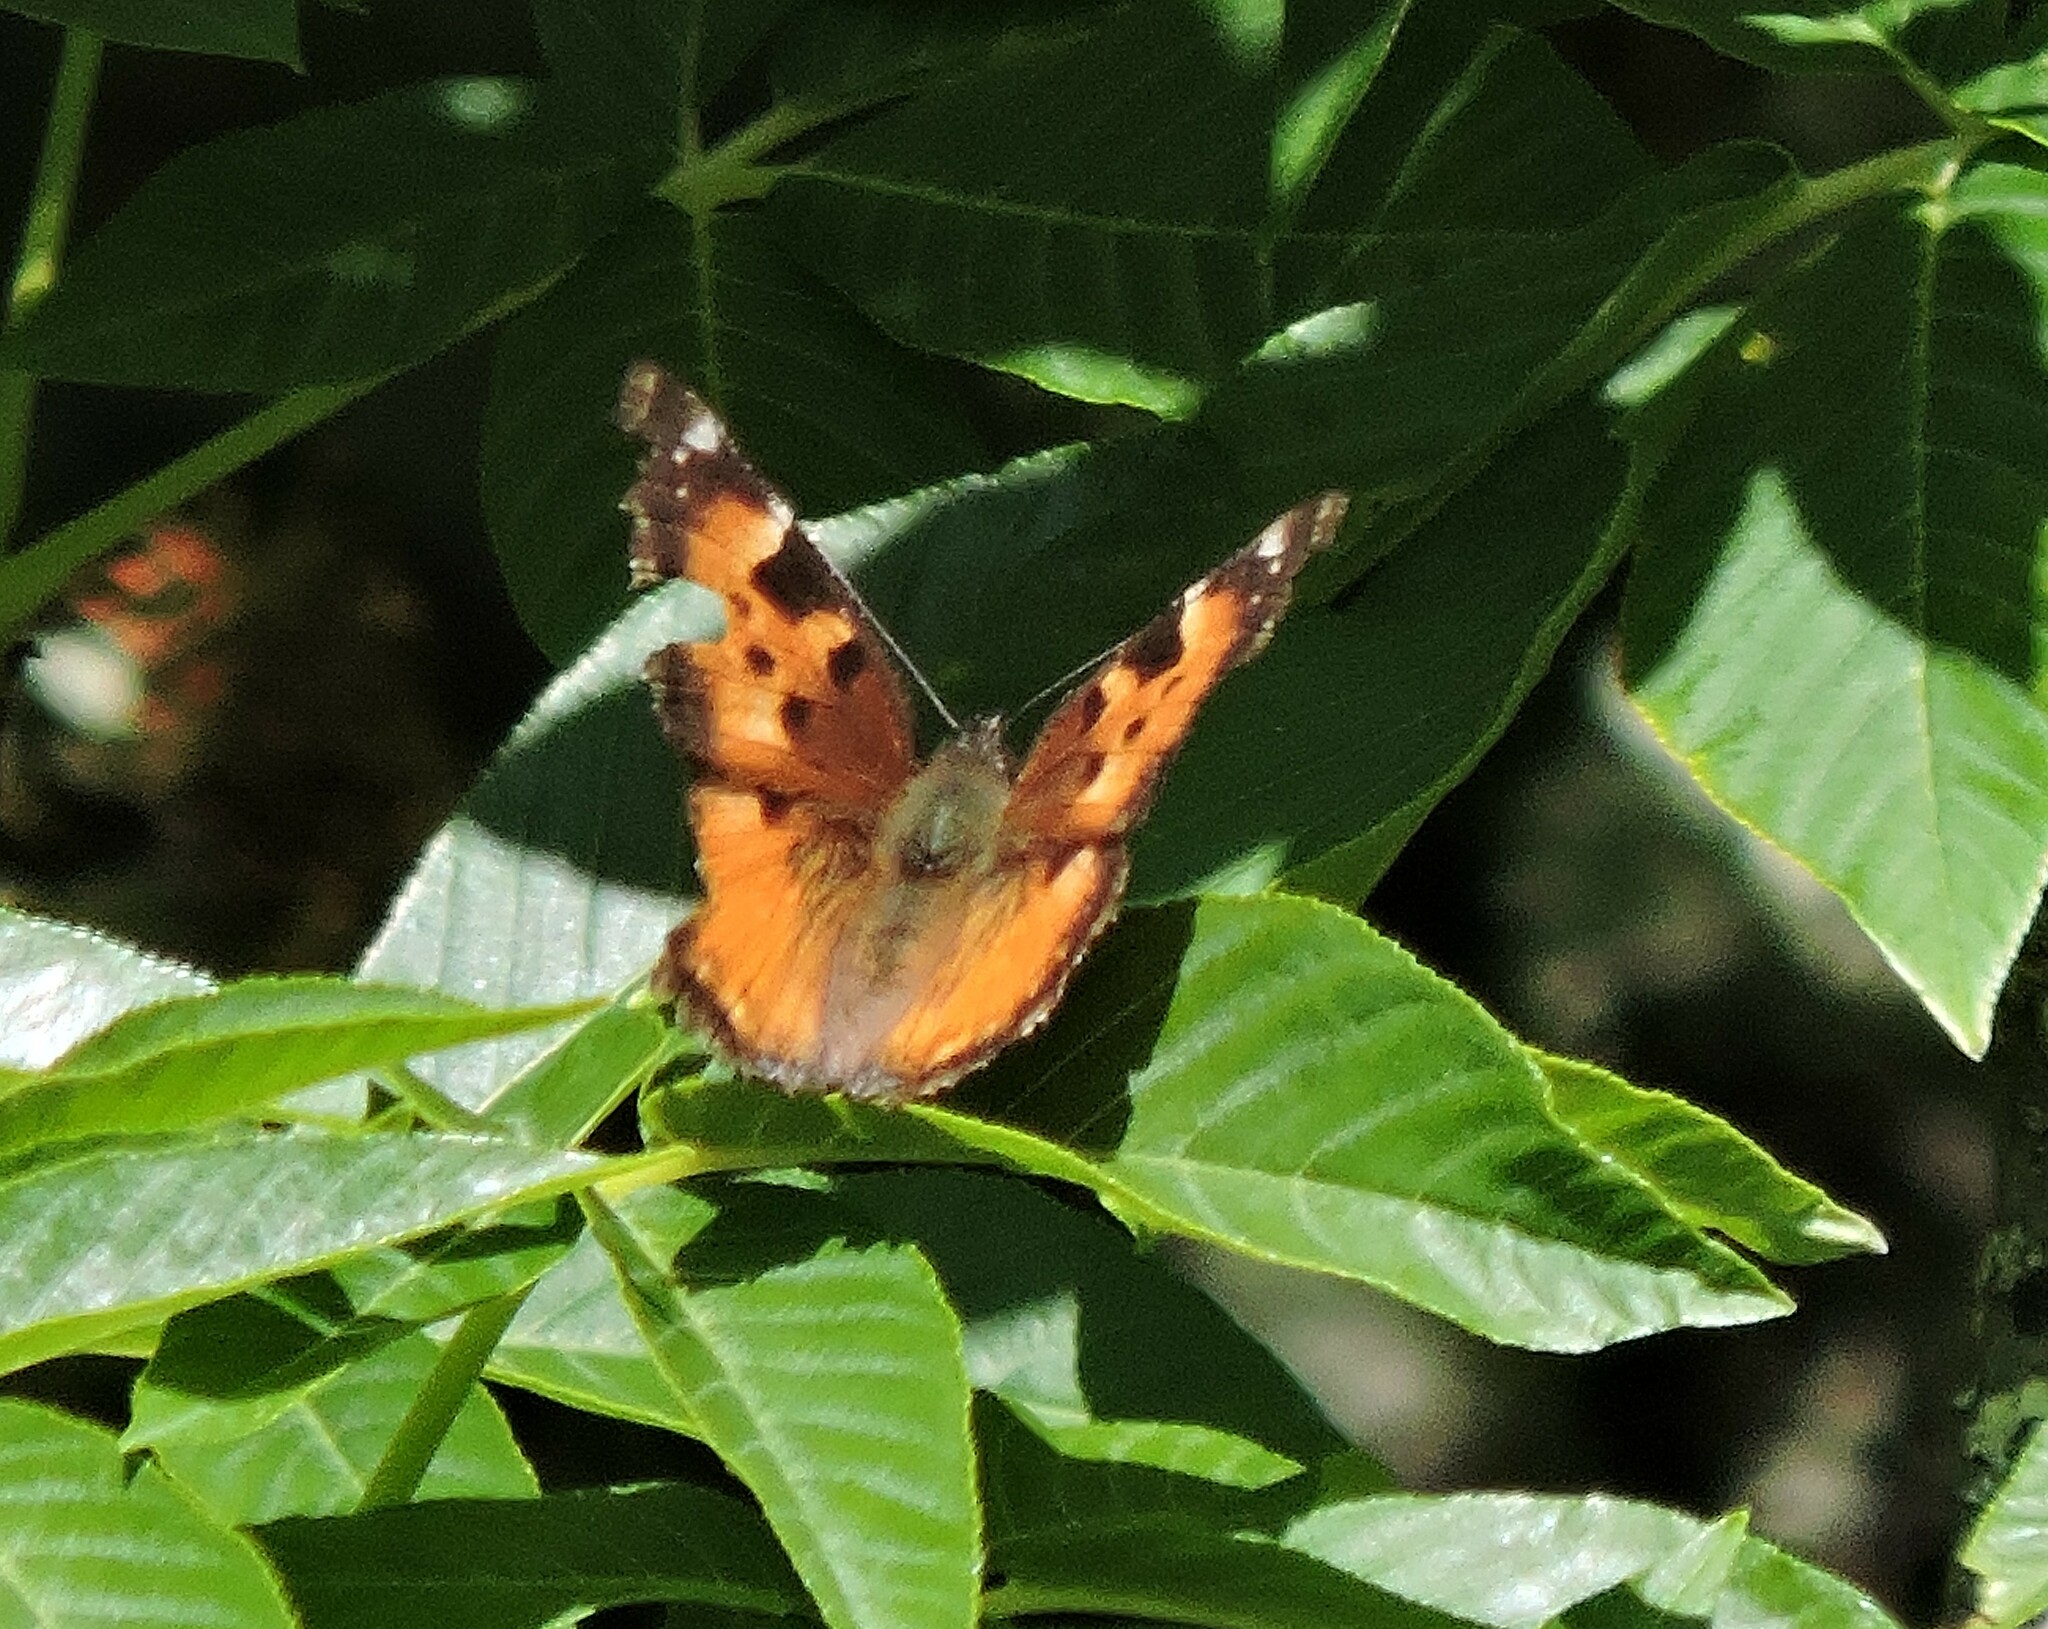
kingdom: Animalia
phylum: Arthropoda
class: Insecta
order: Lepidoptera
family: Nymphalidae
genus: Nymphalis
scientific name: Nymphalis californica
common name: California tortoiseshell
